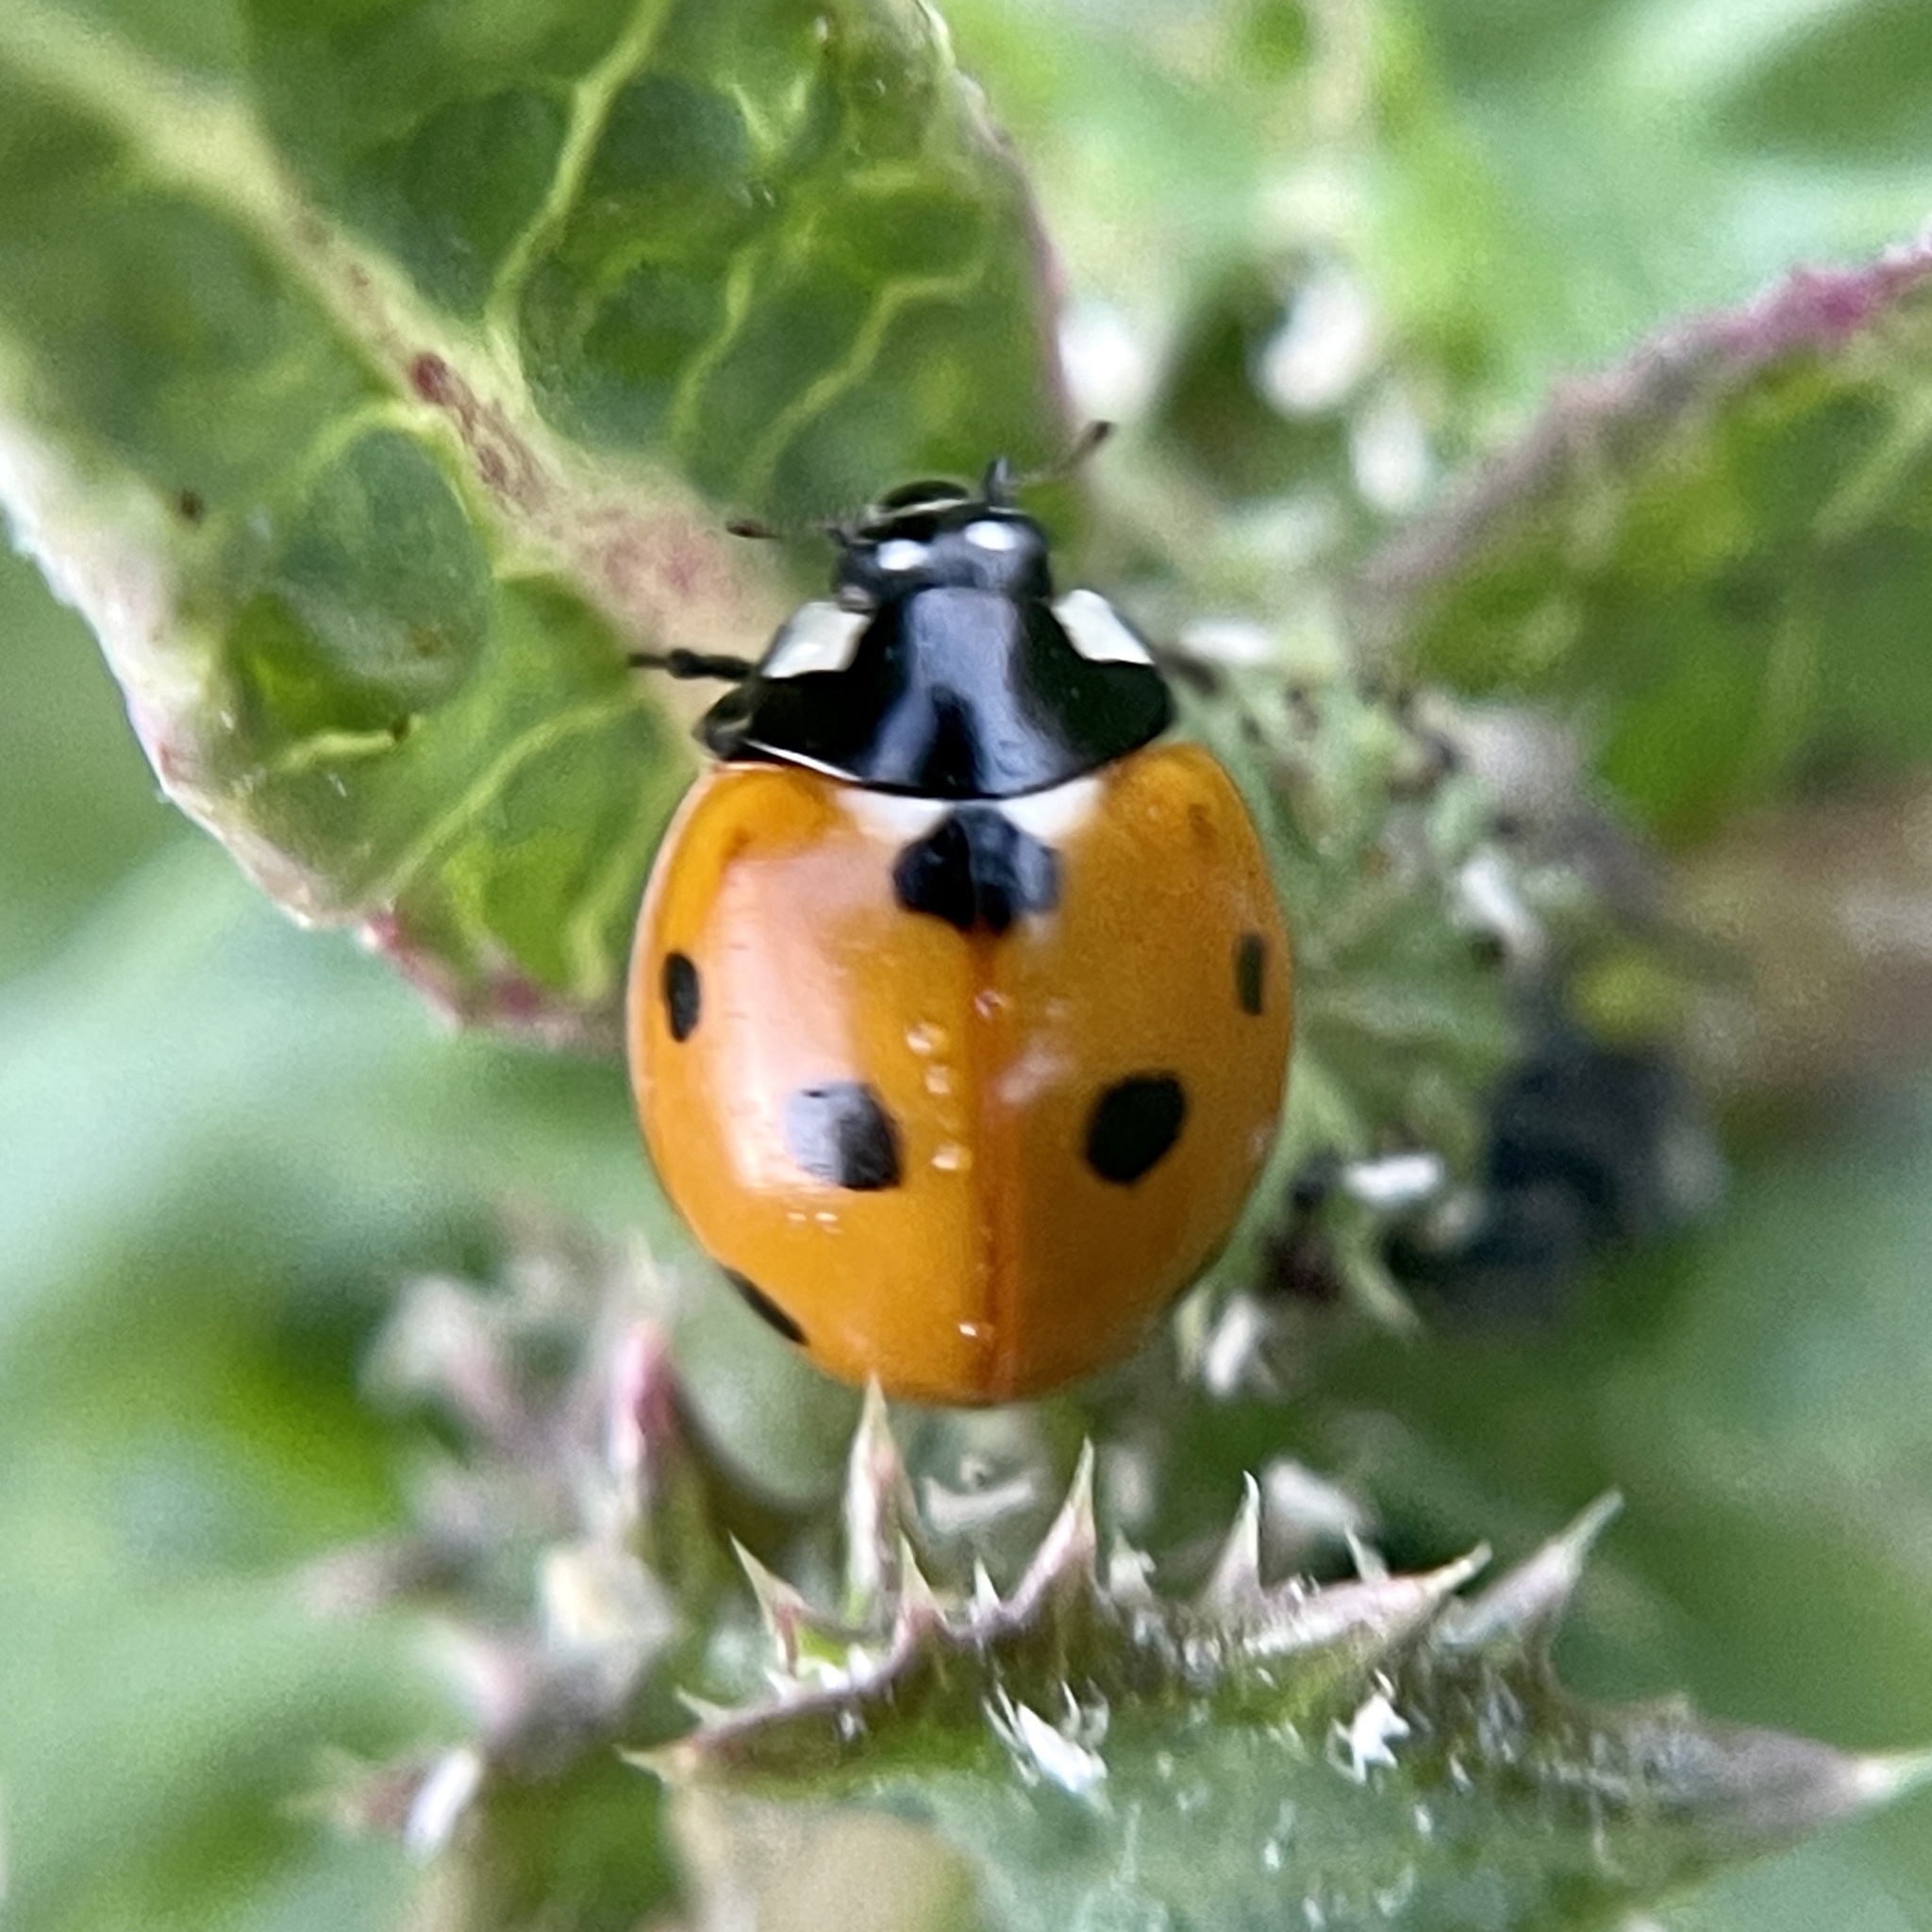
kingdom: Animalia
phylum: Arthropoda
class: Insecta
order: Coleoptera
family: Coccinellidae
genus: Coccinella
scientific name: Coccinella septempunctata
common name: Sevenspotted lady beetle
